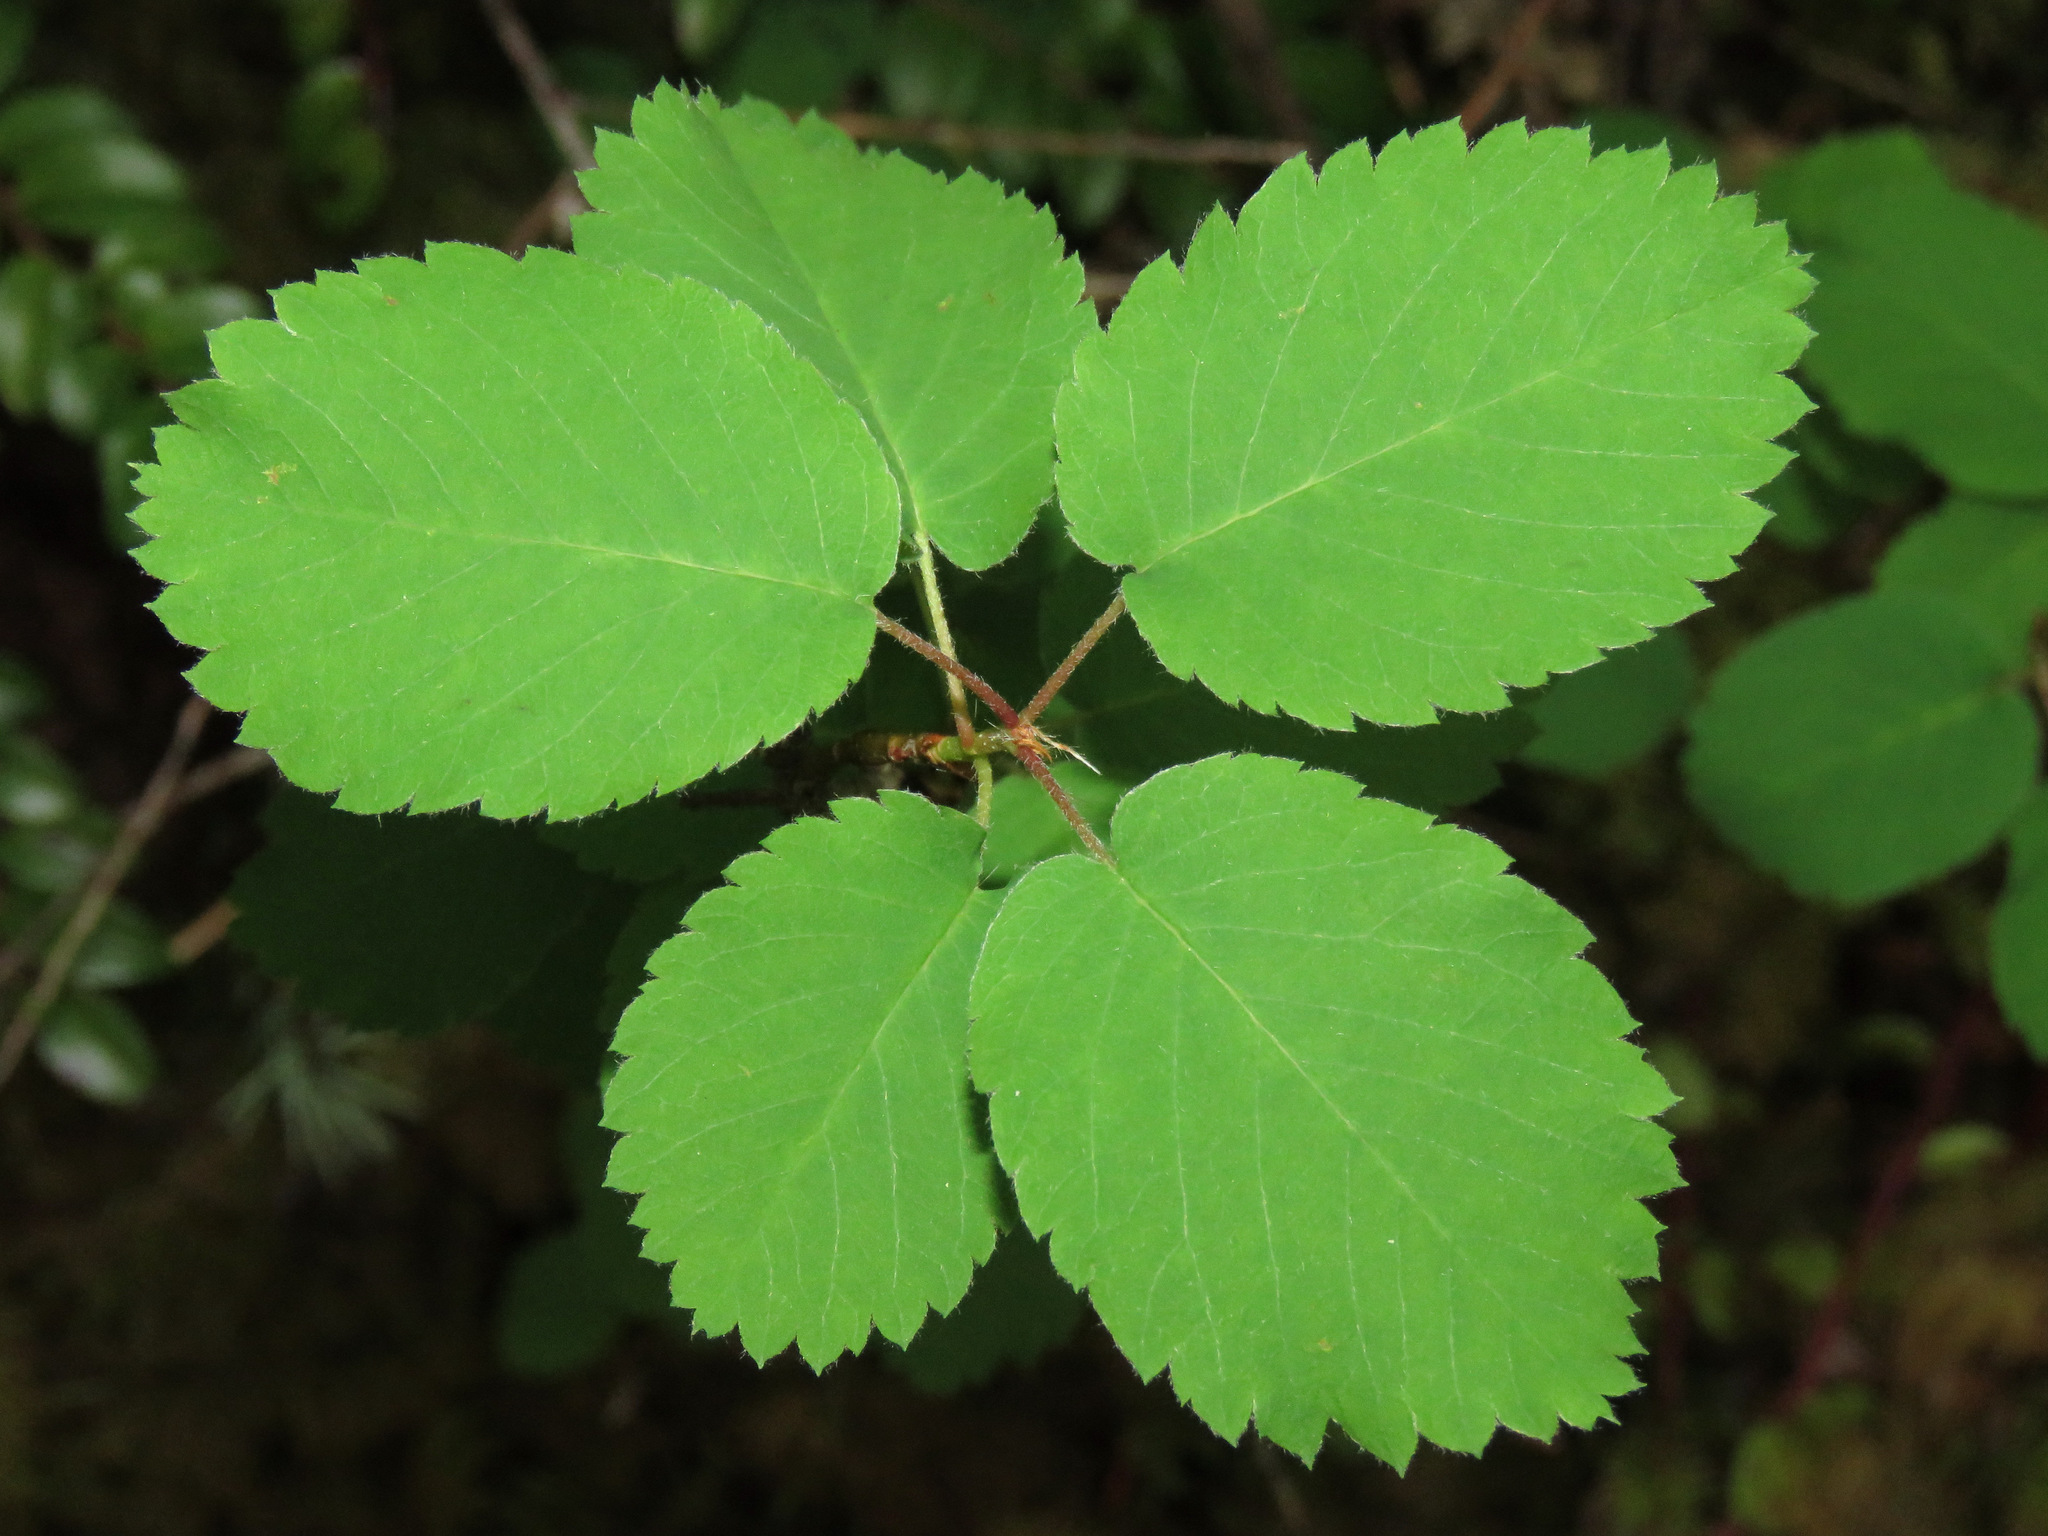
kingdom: Plantae
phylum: Tracheophyta
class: Magnoliopsida
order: Rosales
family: Rosaceae
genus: Amelanchier
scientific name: Amelanchier alnifolia
